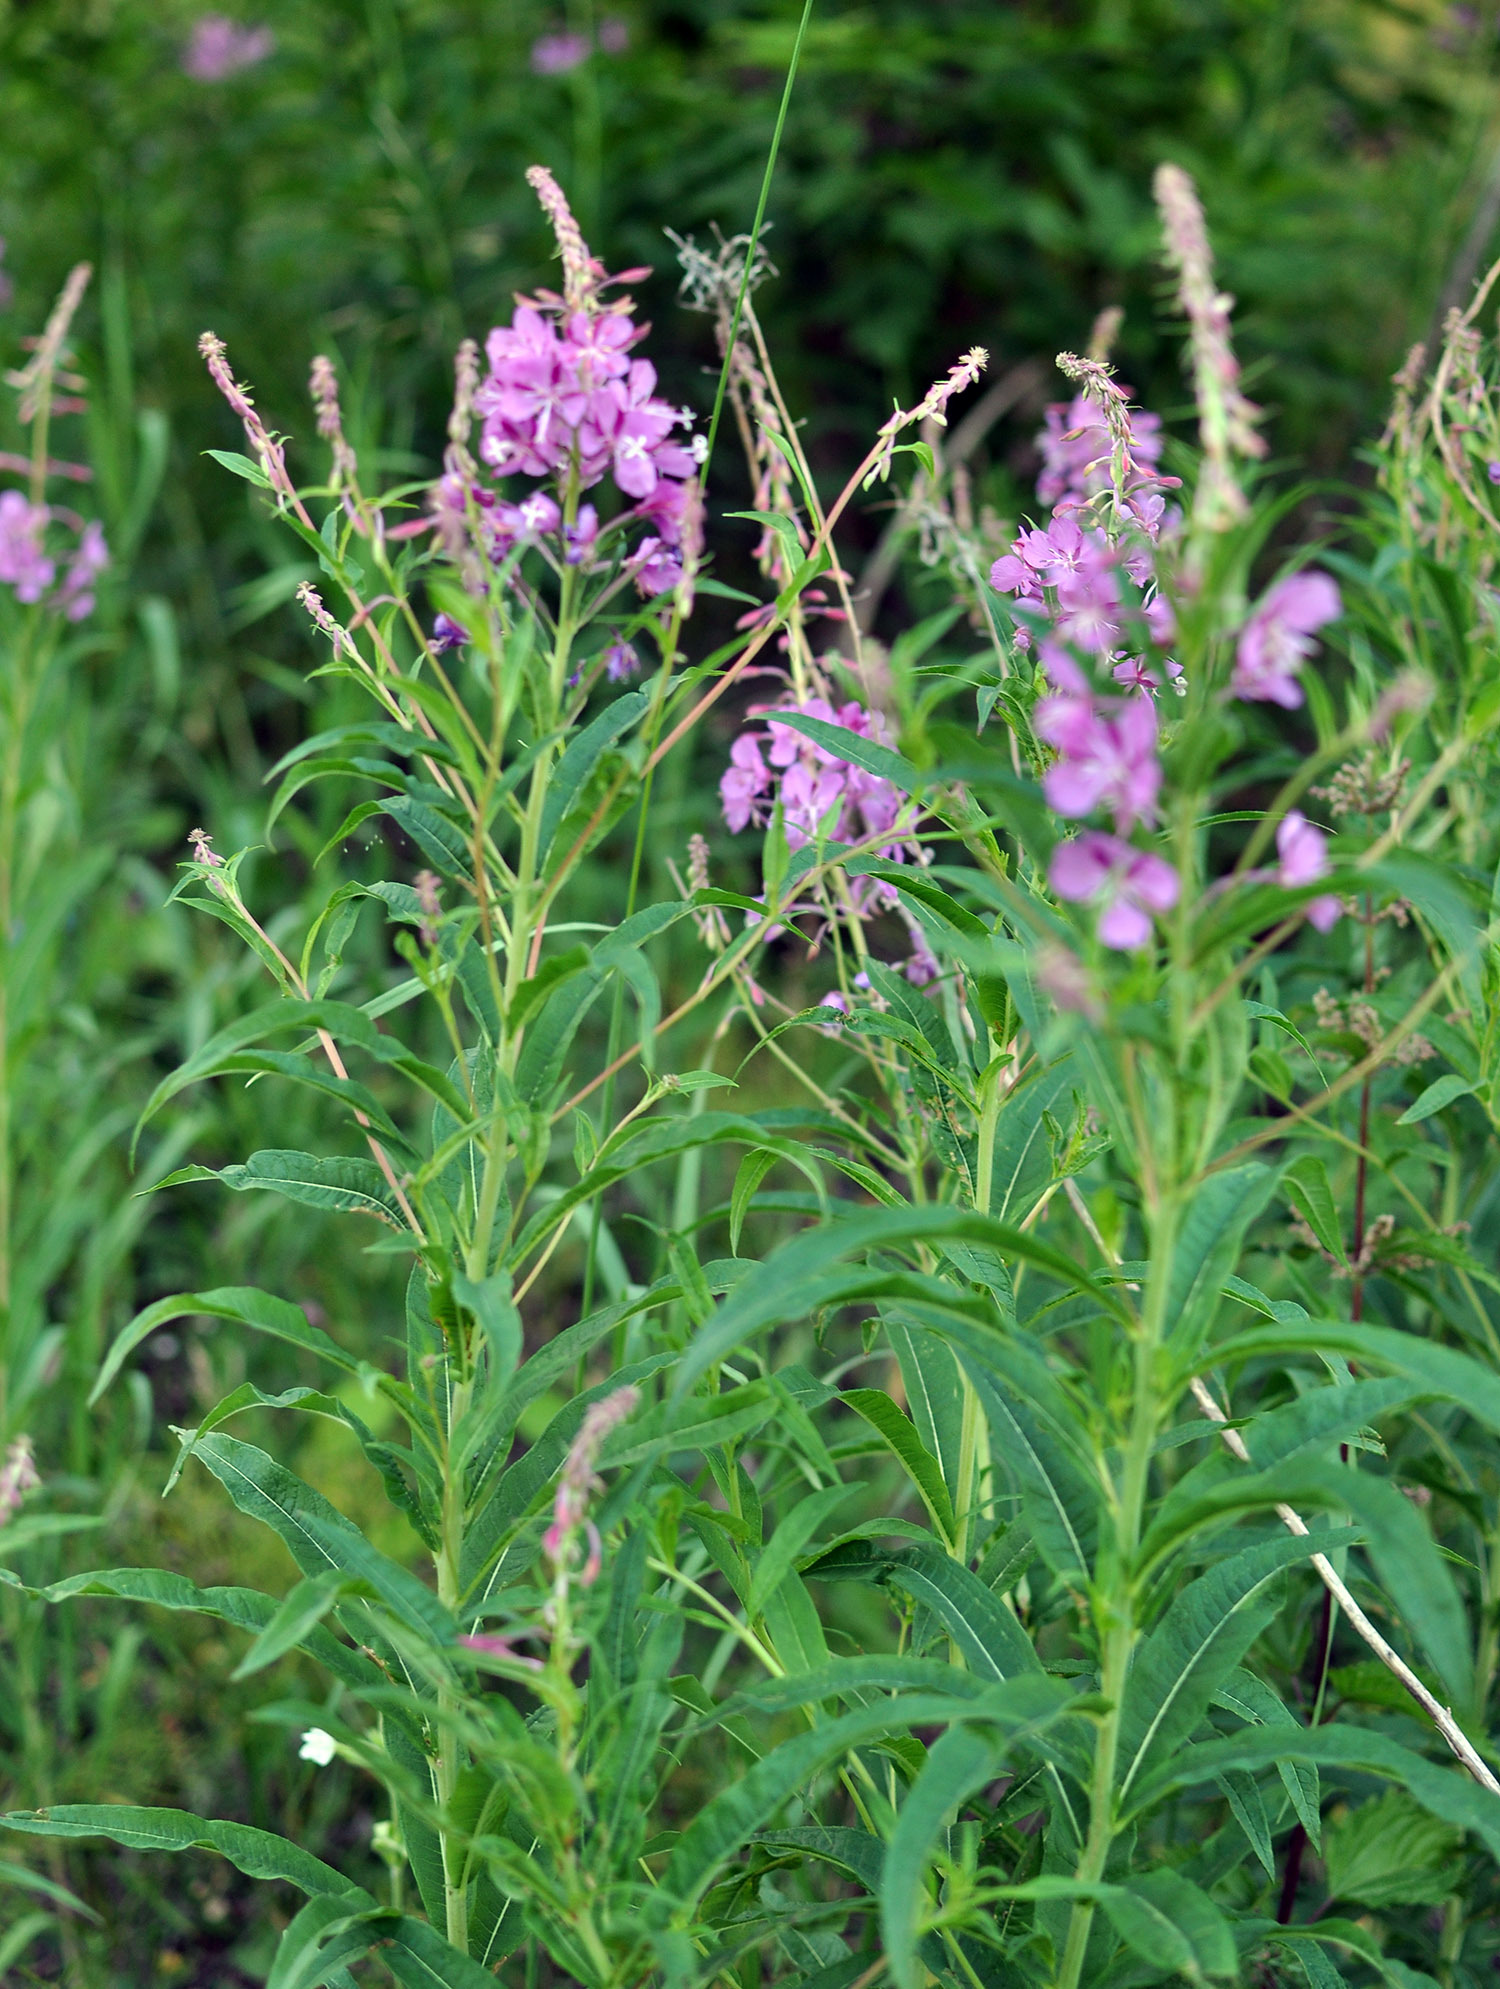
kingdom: Plantae
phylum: Tracheophyta
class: Magnoliopsida
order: Myrtales
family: Onagraceae
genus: Chamaenerion
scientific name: Chamaenerion angustifolium
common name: Fireweed
